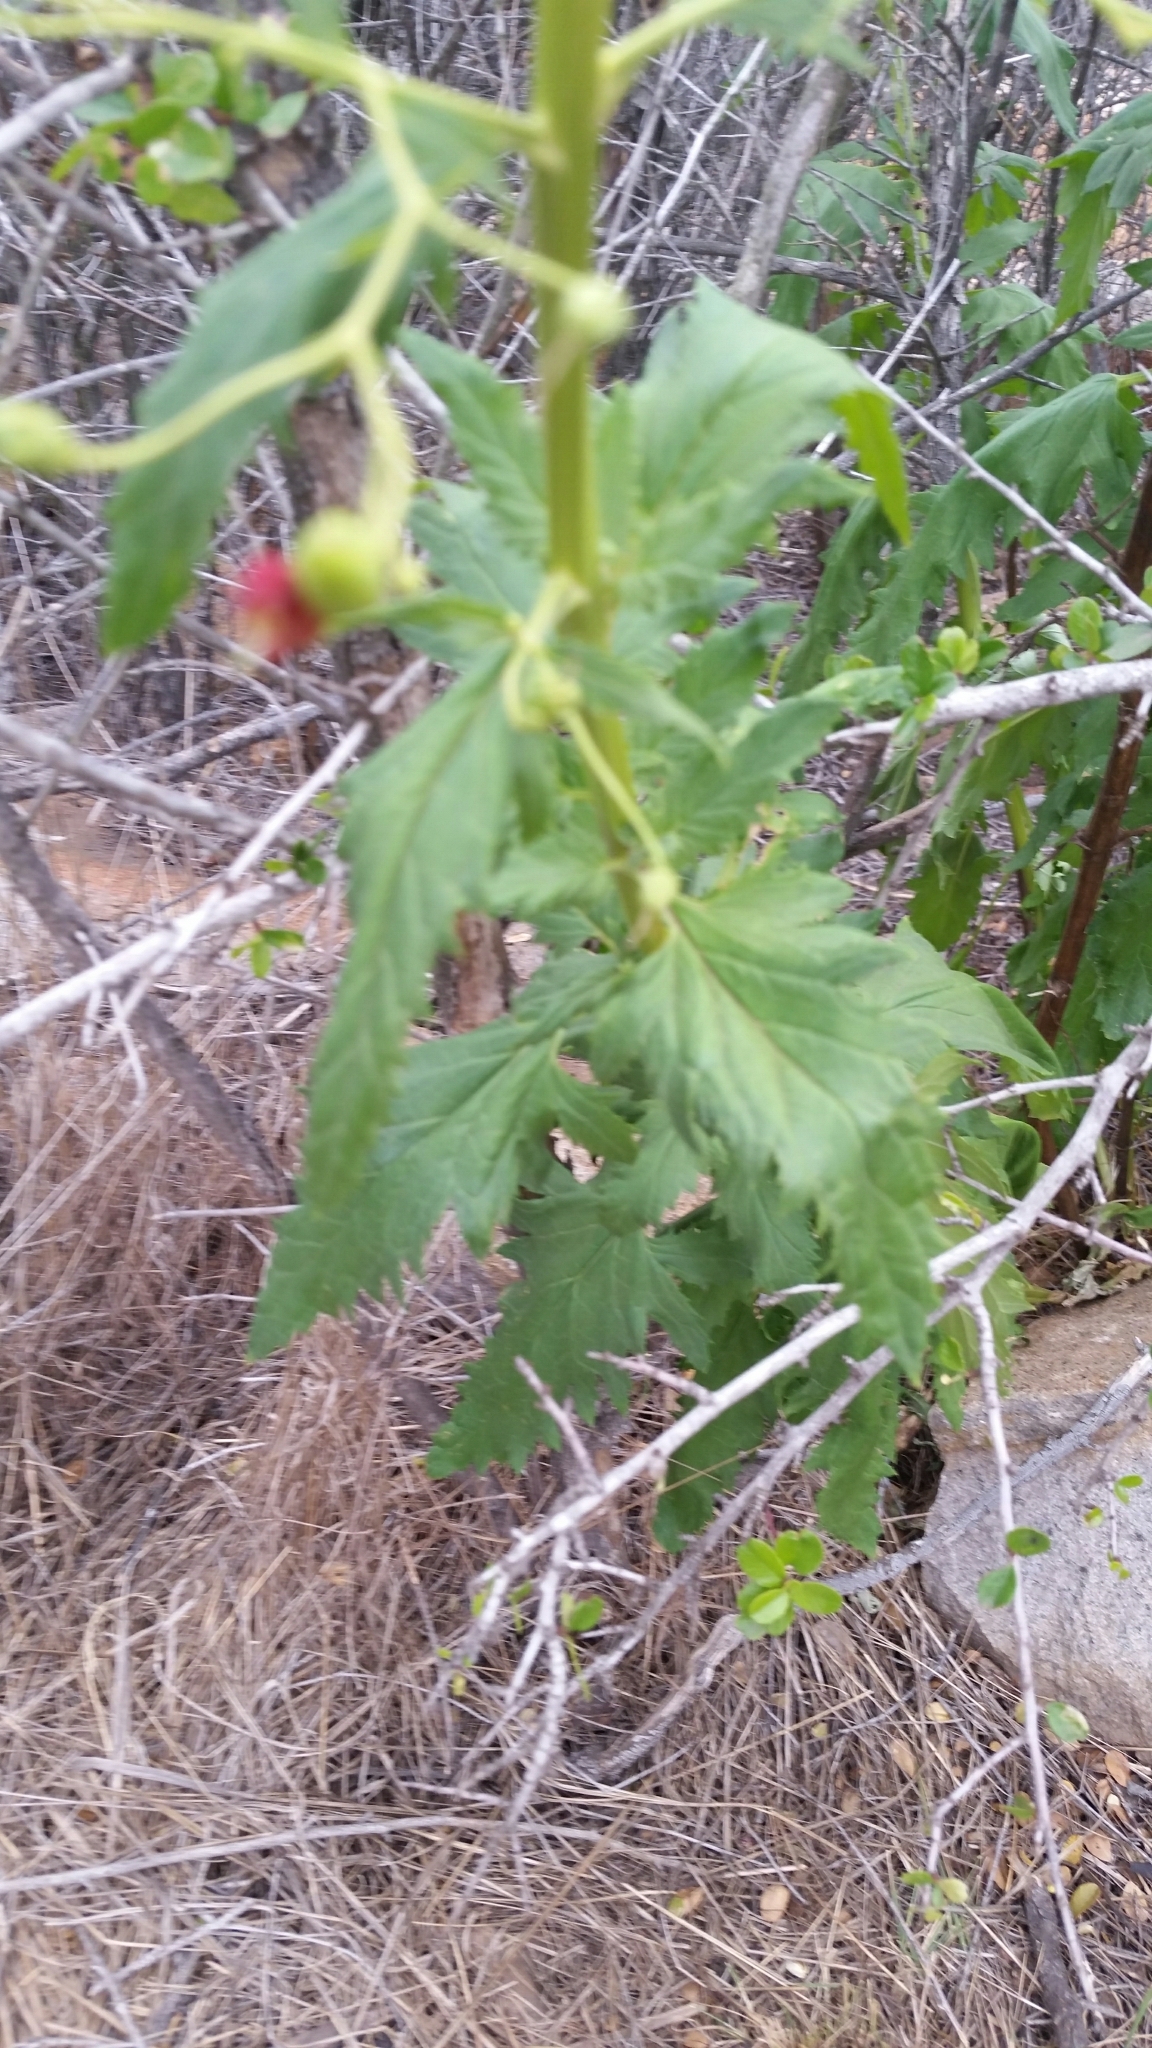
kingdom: Plantae
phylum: Tracheophyta
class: Magnoliopsida
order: Lamiales
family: Scrophulariaceae
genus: Scrophularia
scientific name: Scrophularia californica
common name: California figwort
